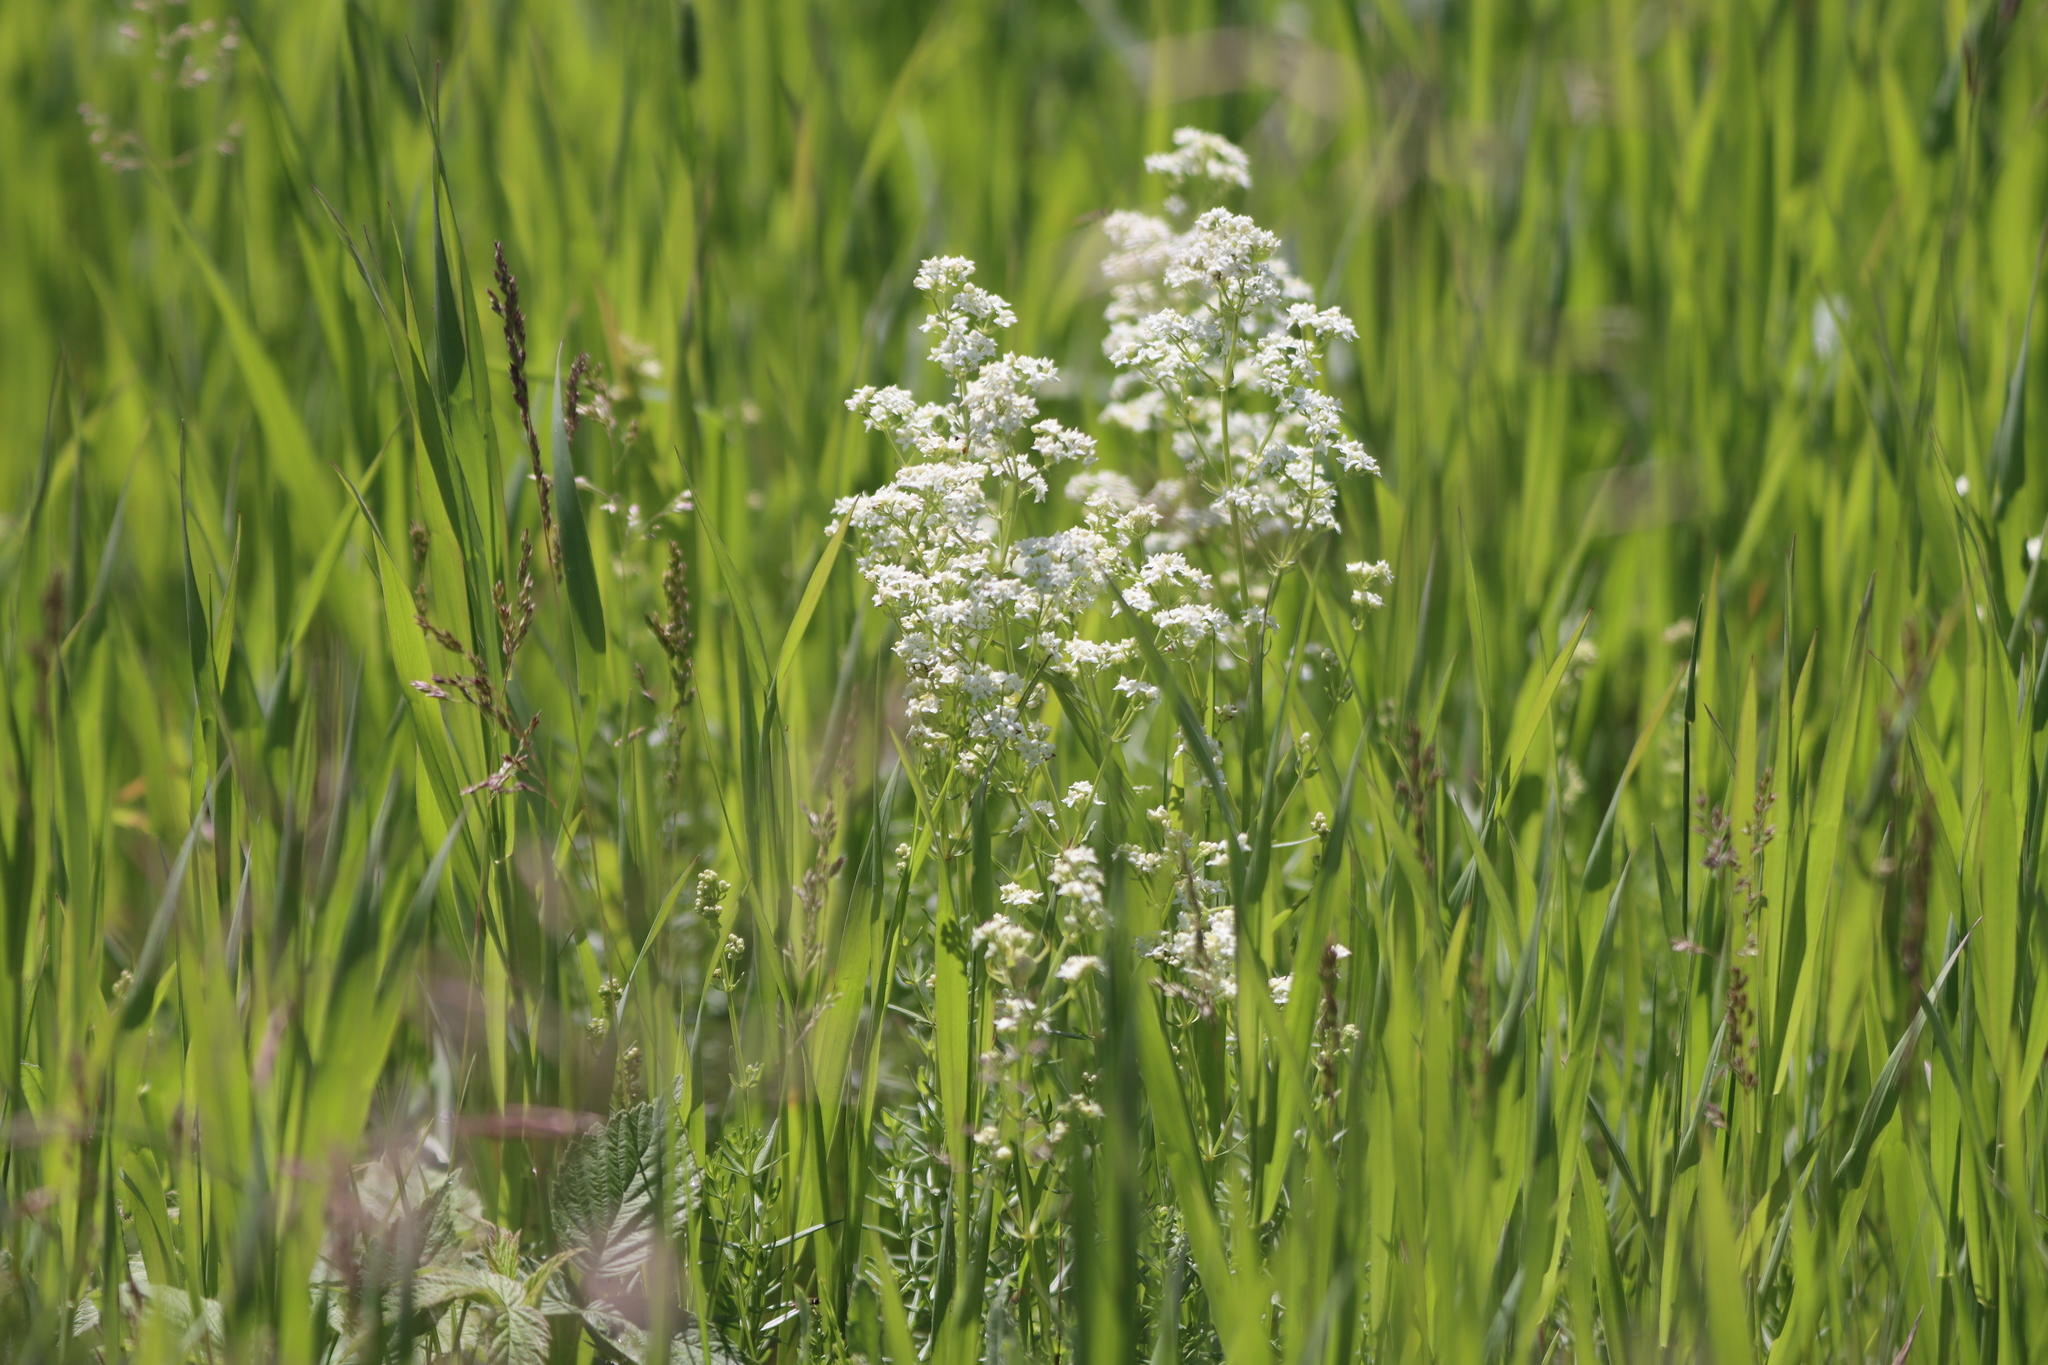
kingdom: Plantae
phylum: Tracheophyta
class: Magnoliopsida
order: Gentianales
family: Rubiaceae
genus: Galium
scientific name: Galium boreale
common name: Northern bedstraw
